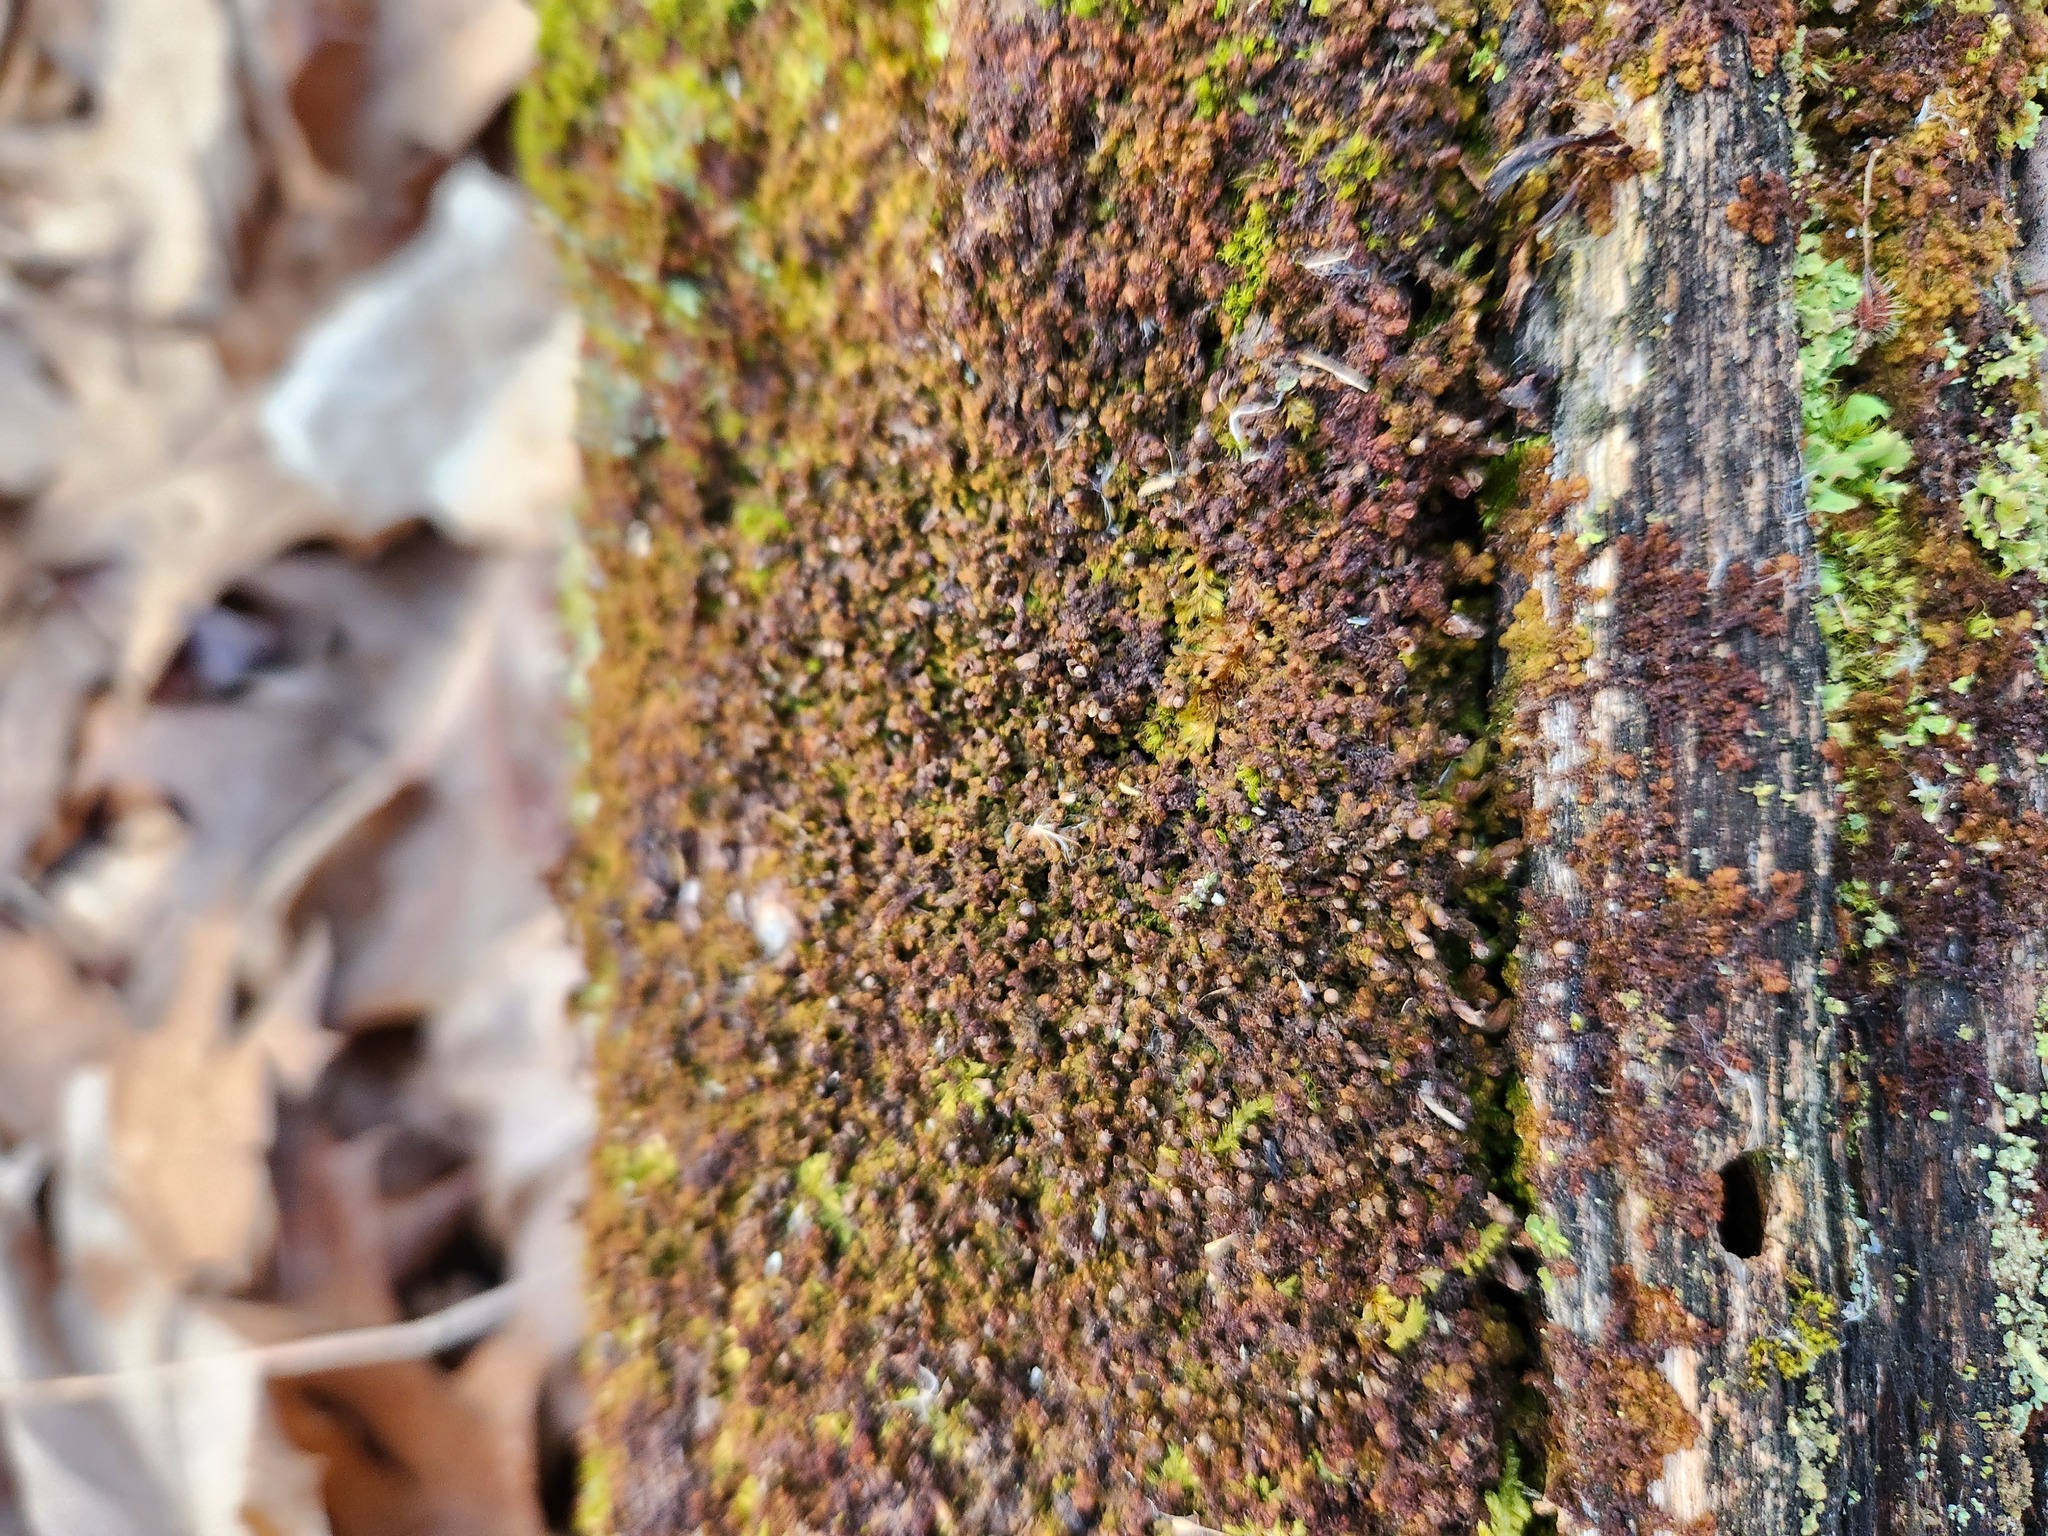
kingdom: Plantae
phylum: Marchantiophyta
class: Jungermanniopsida
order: Ptilidiales
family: Ptilidiaceae
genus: Ptilidium
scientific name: Ptilidium pulcherrimum
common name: Tree fringewort
